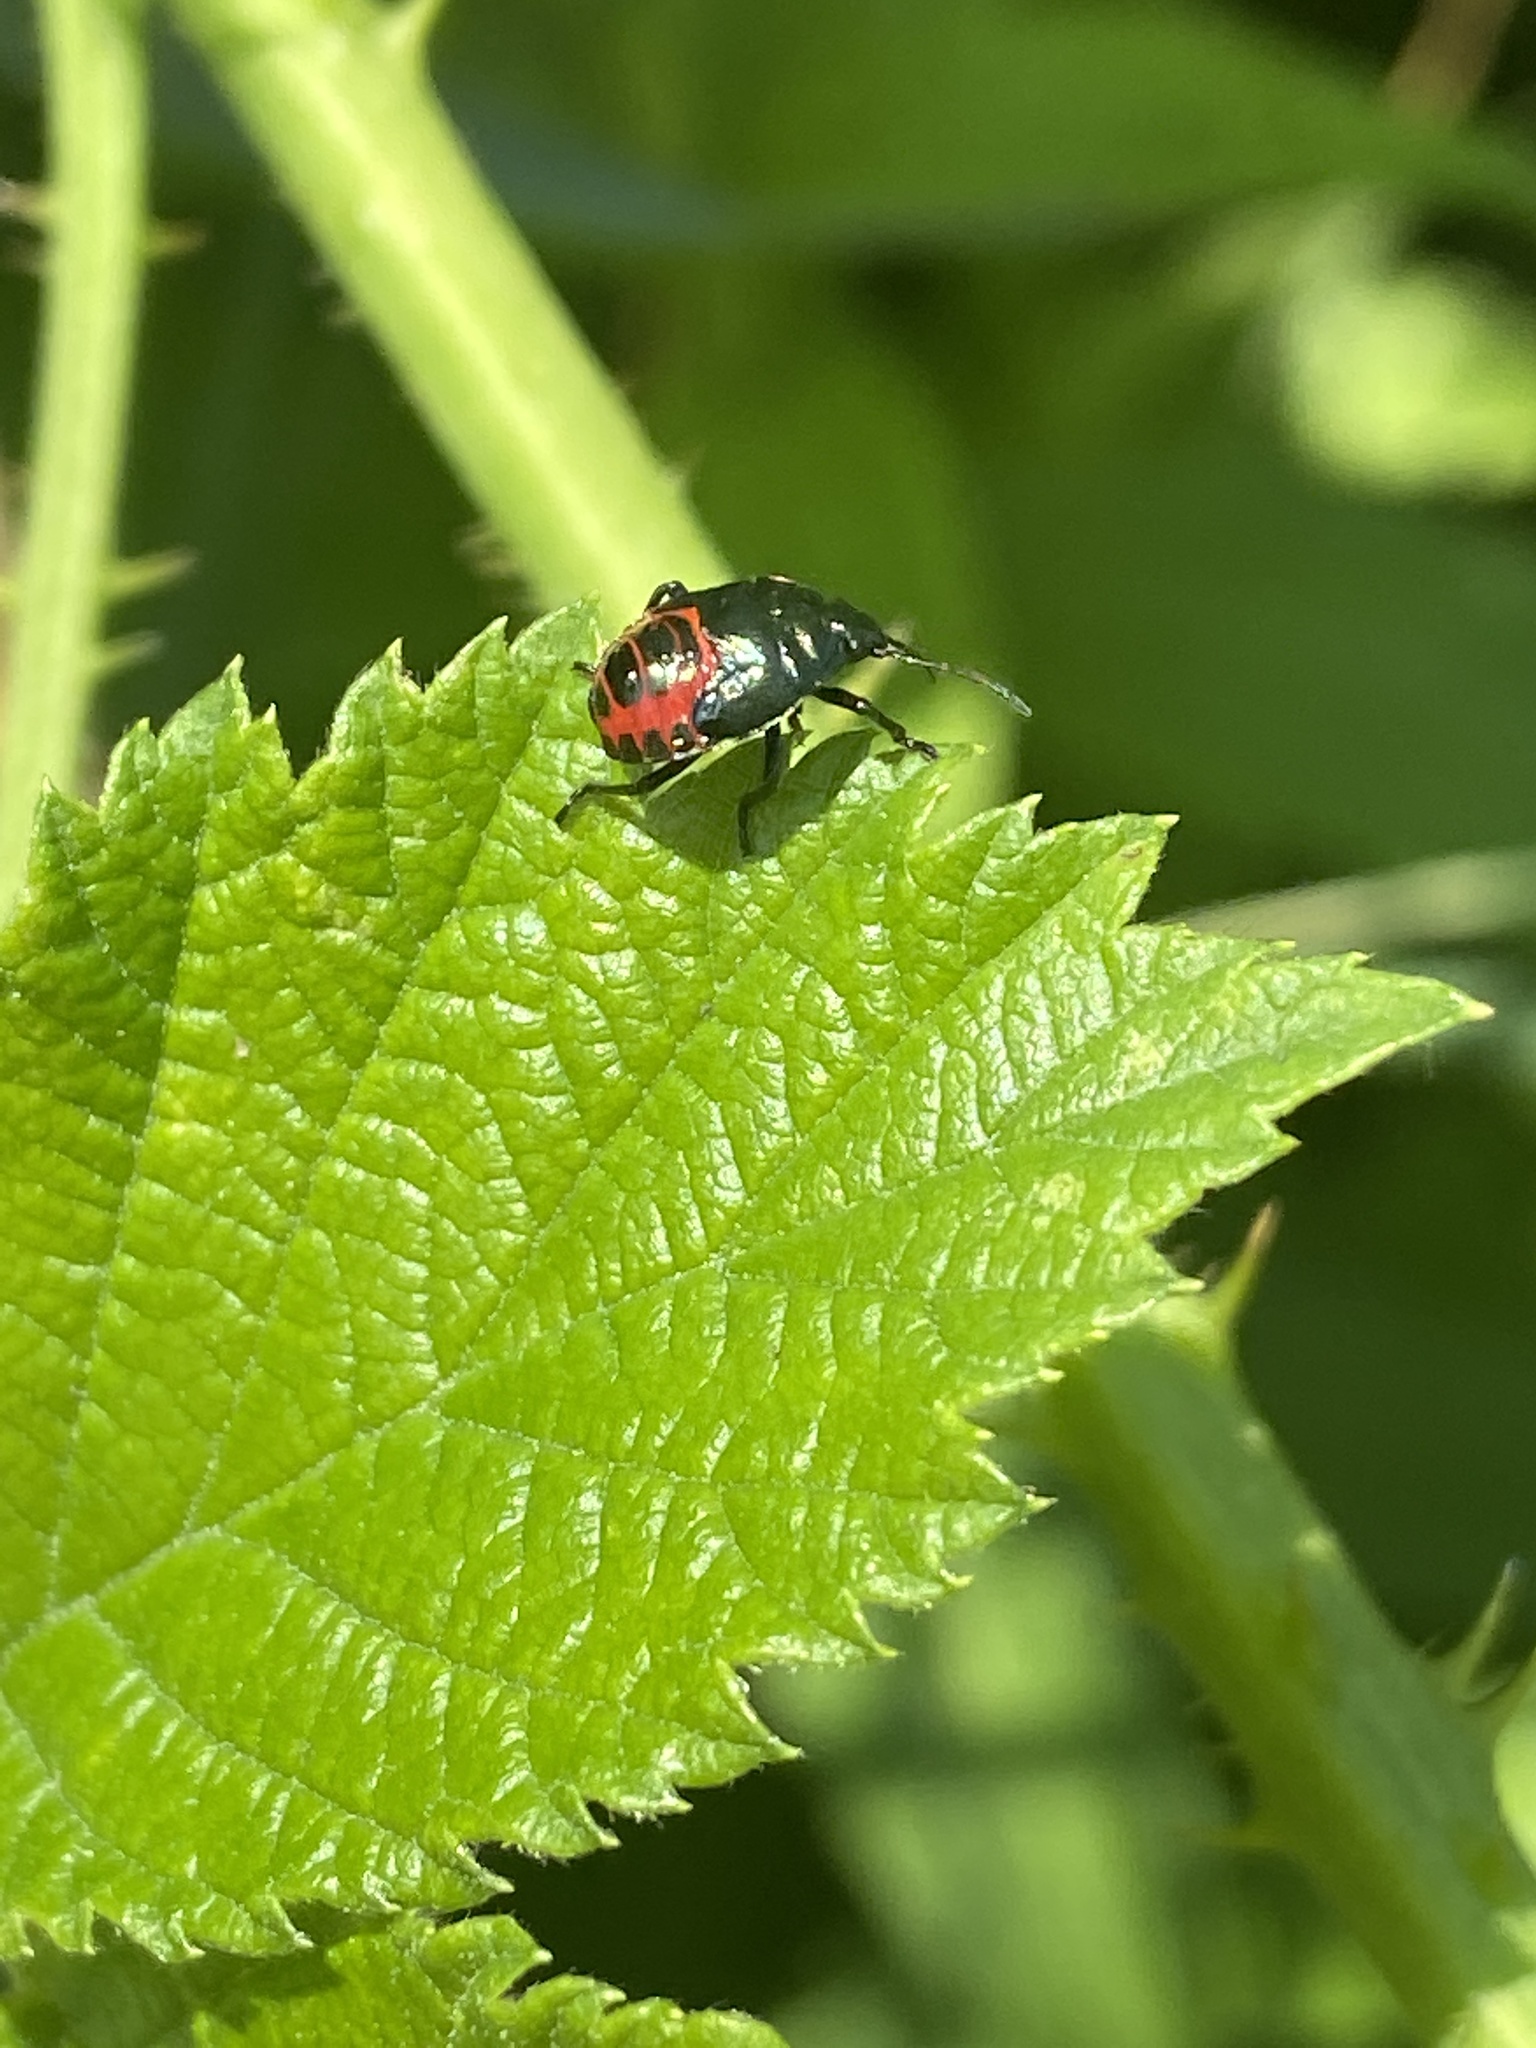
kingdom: Animalia
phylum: Arthropoda
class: Insecta
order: Hemiptera
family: Pentatomidae
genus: Zicrona
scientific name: Zicrona caerulea
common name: Blue shieldbug
